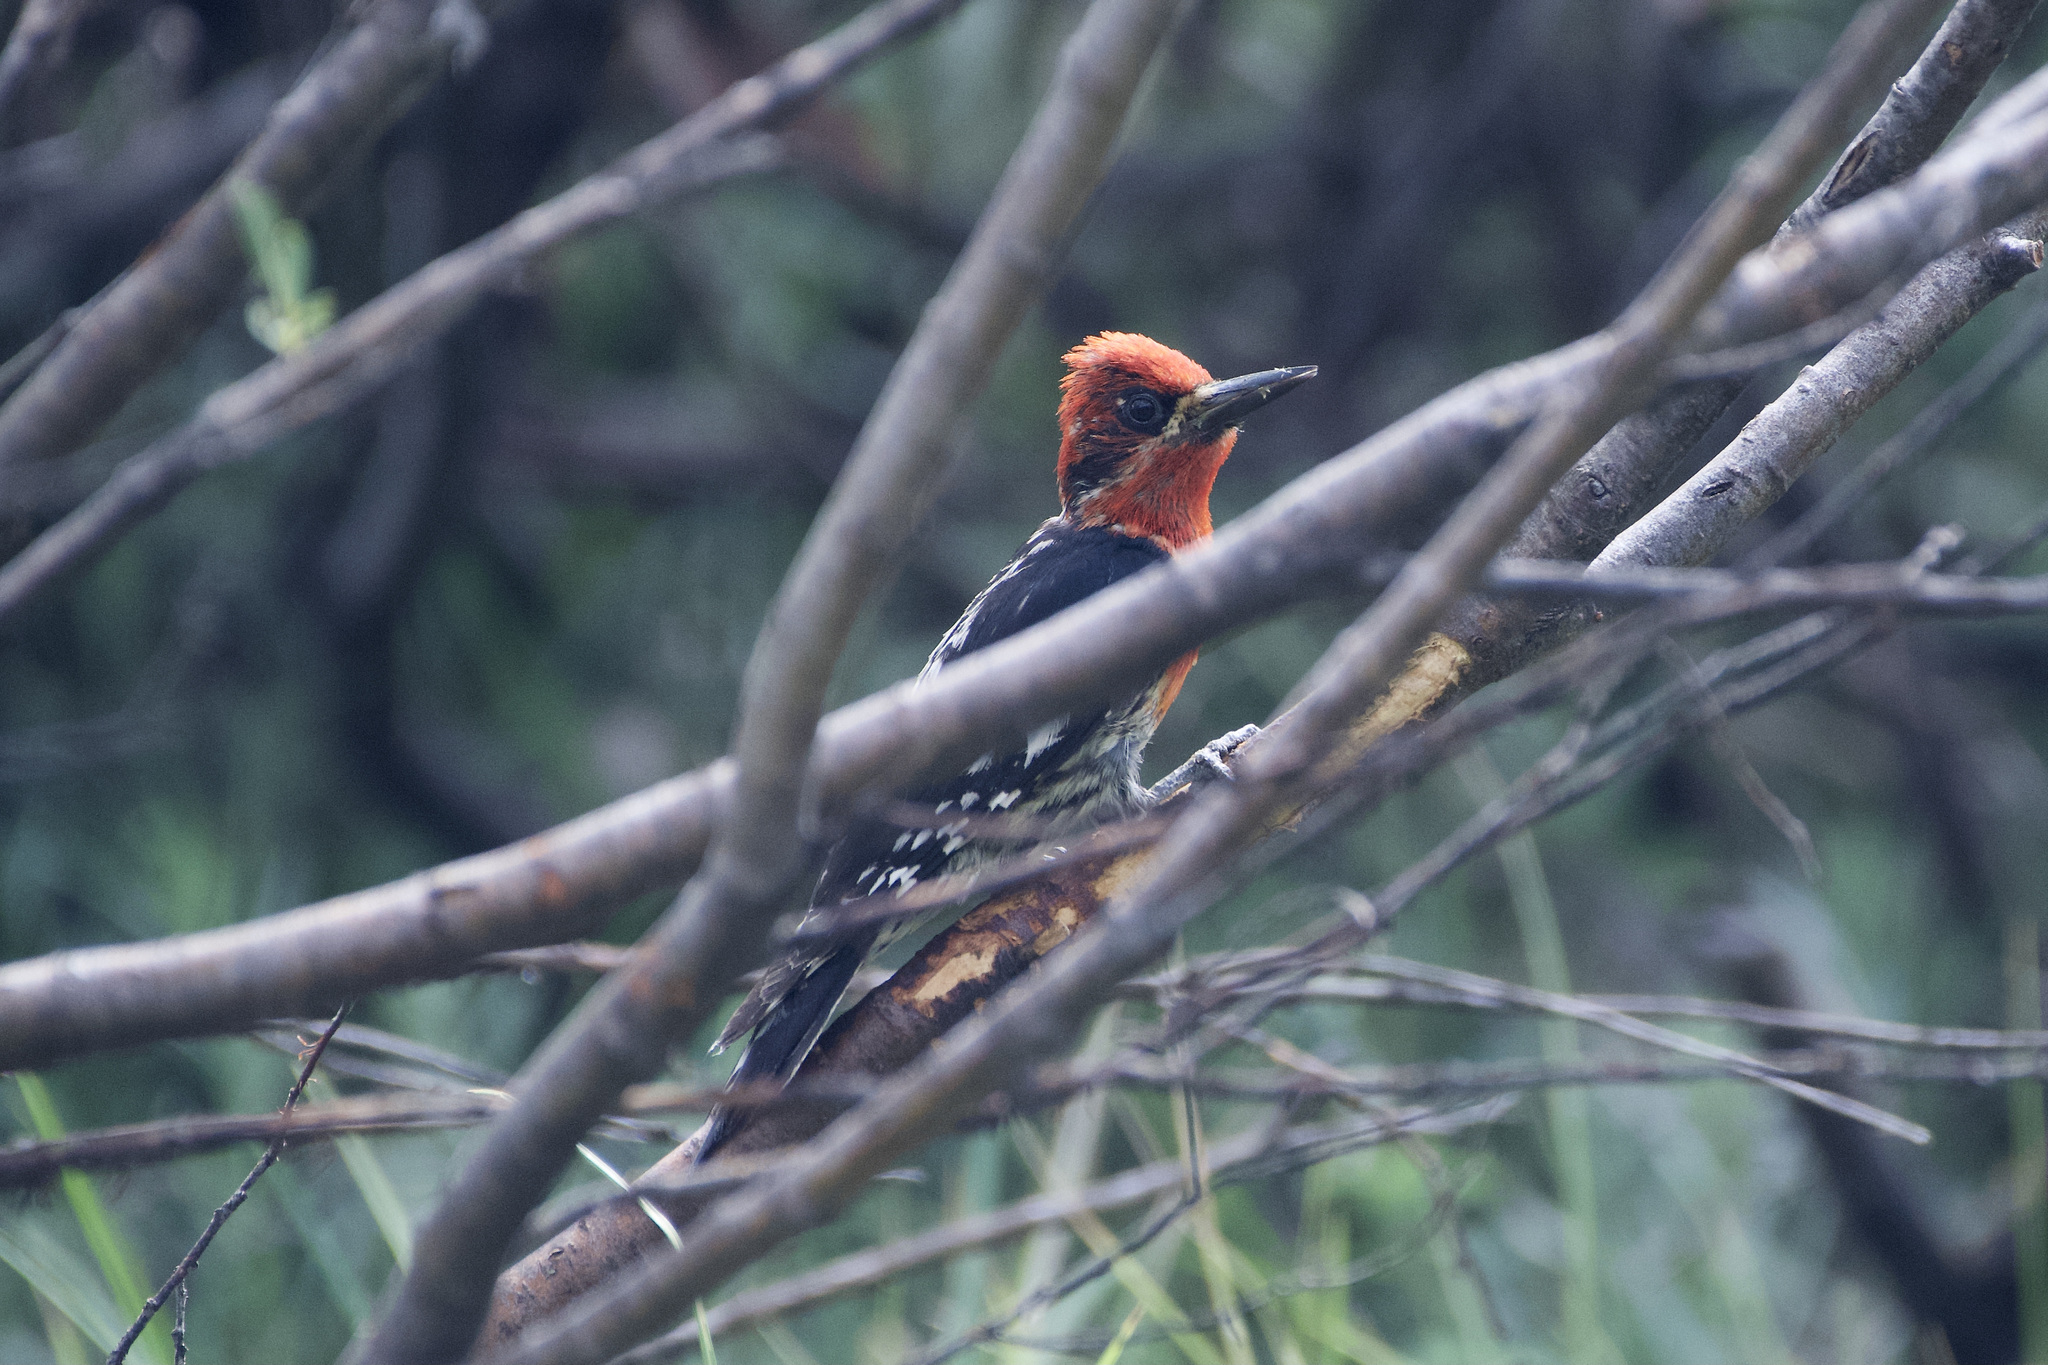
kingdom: Animalia
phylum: Chordata
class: Aves
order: Piciformes
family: Picidae
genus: Sphyrapicus
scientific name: Sphyrapicus ruber
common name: Red-breasted sapsucker
